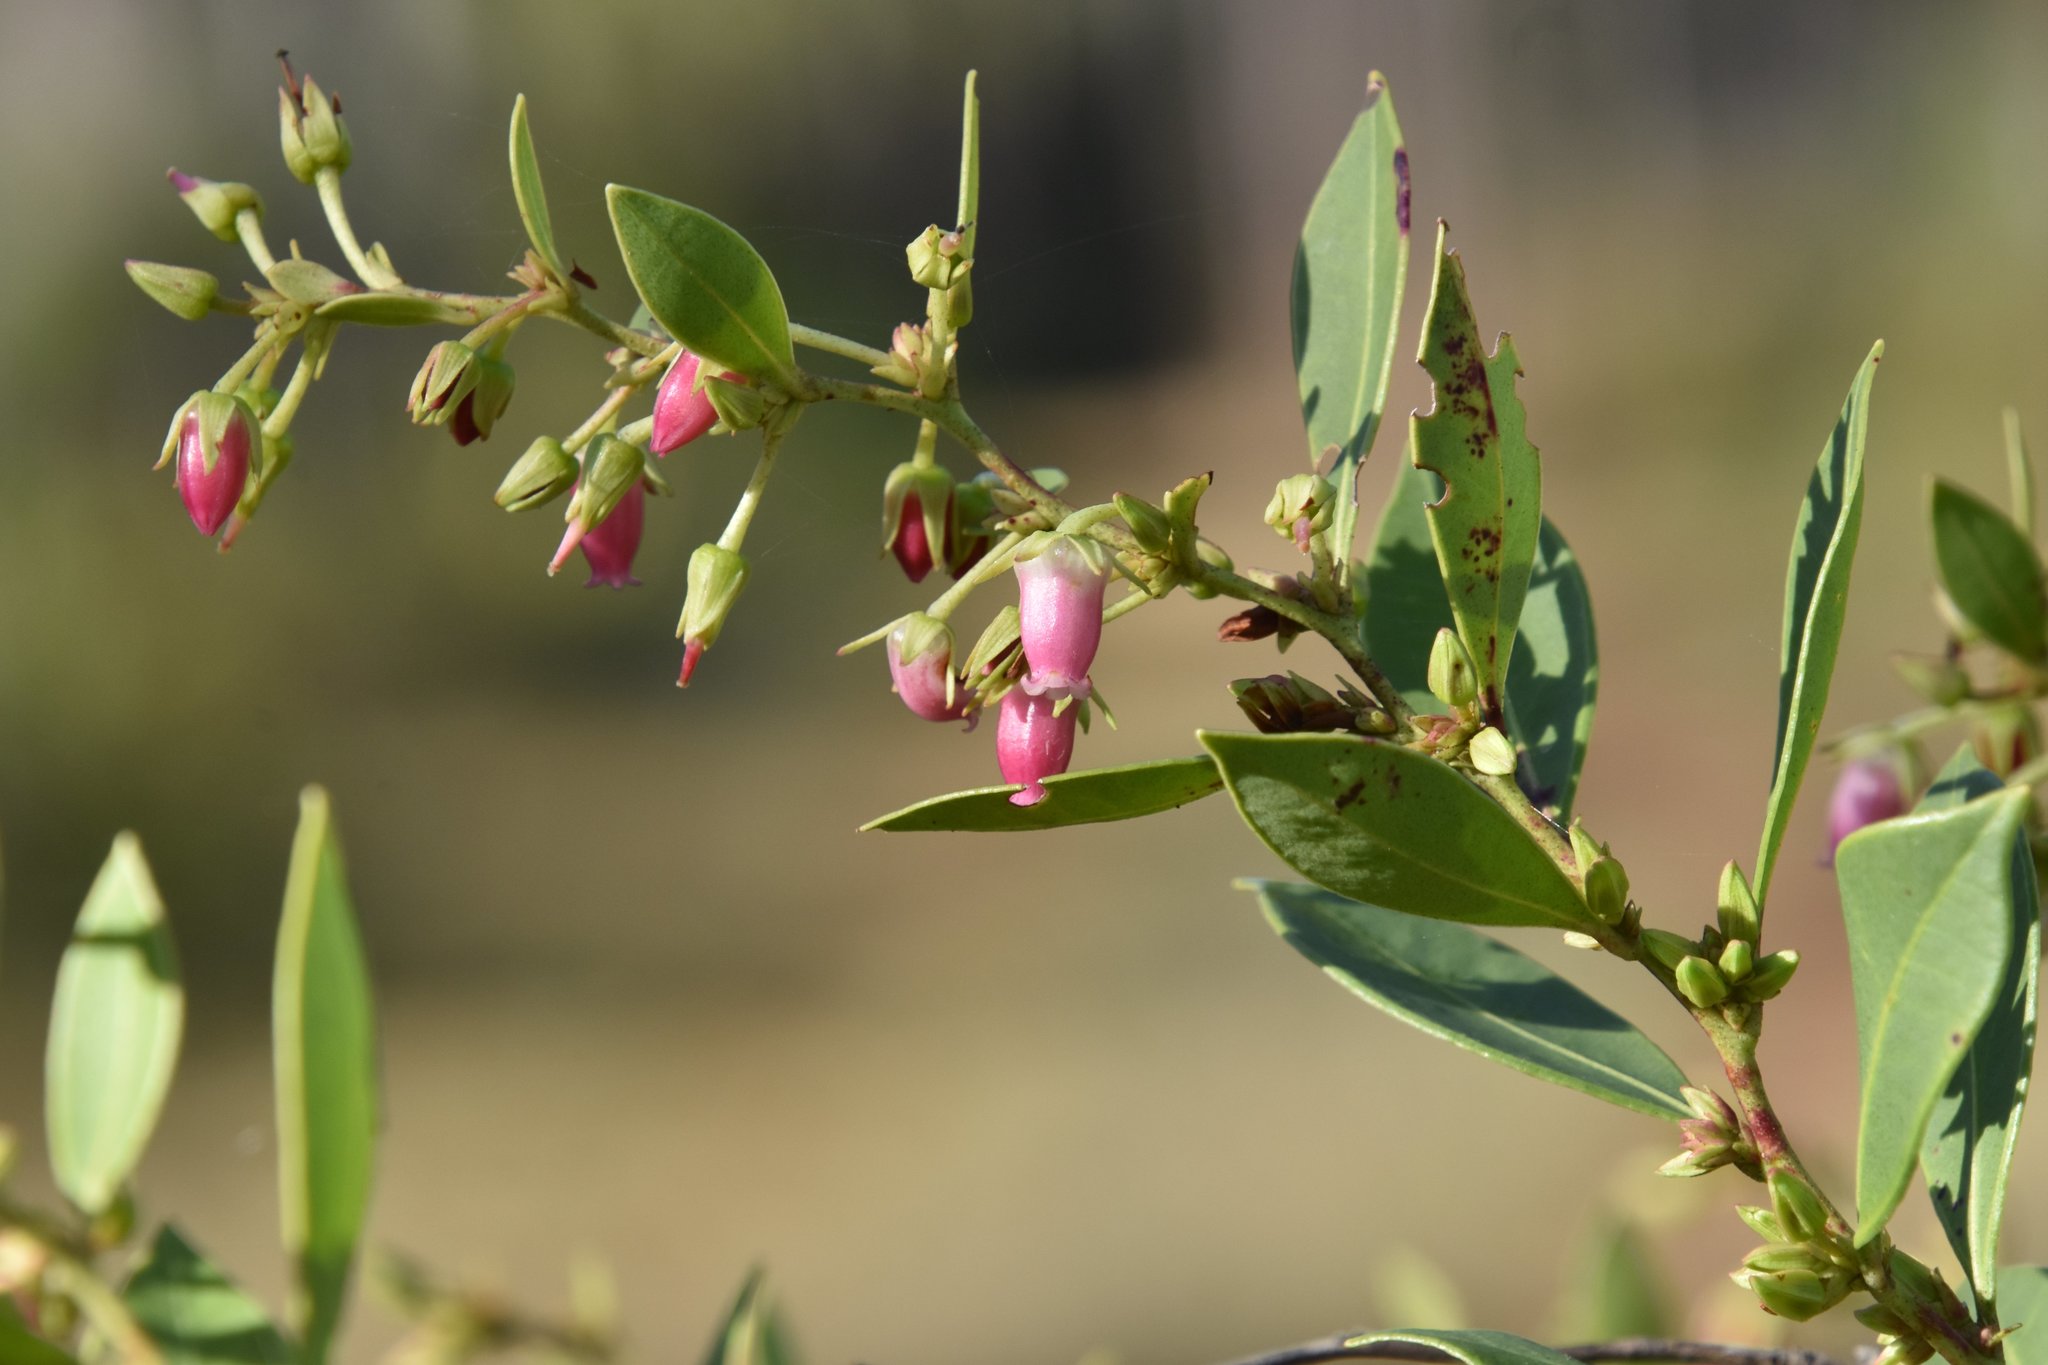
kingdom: Plantae
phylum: Tracheophyta
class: Magnoliopsida
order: Ericales
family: Ericaceae
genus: Lyonia
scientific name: Lyonia lucida
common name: Fetterbush
